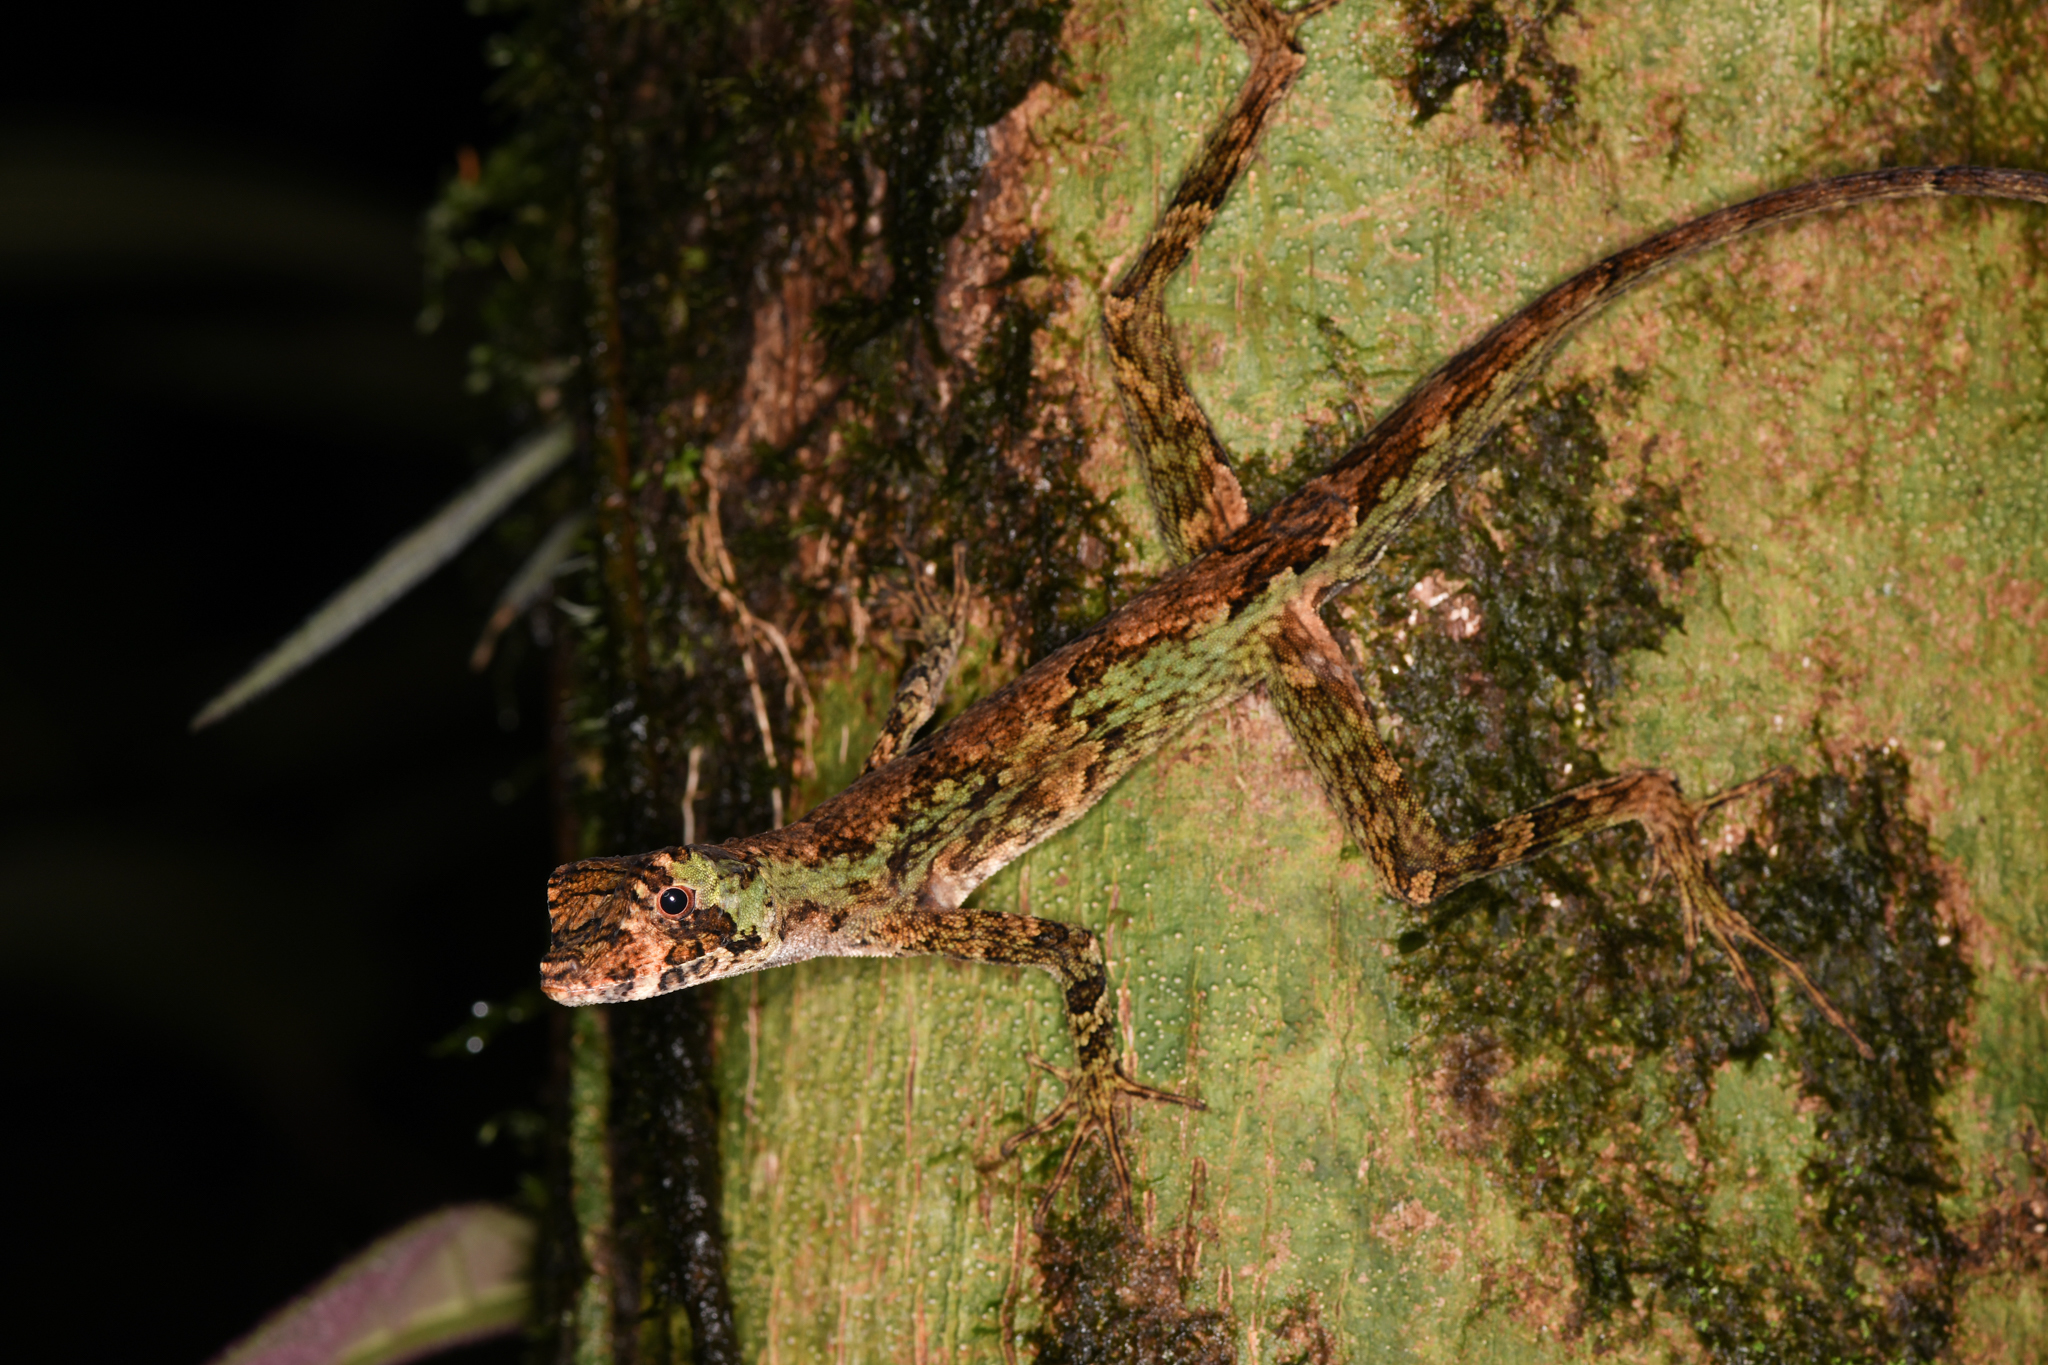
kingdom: Animalia
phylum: Chordata
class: Squamata
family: Dactyloidae
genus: Anolis
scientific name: Anolis capito
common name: Bighead anole
